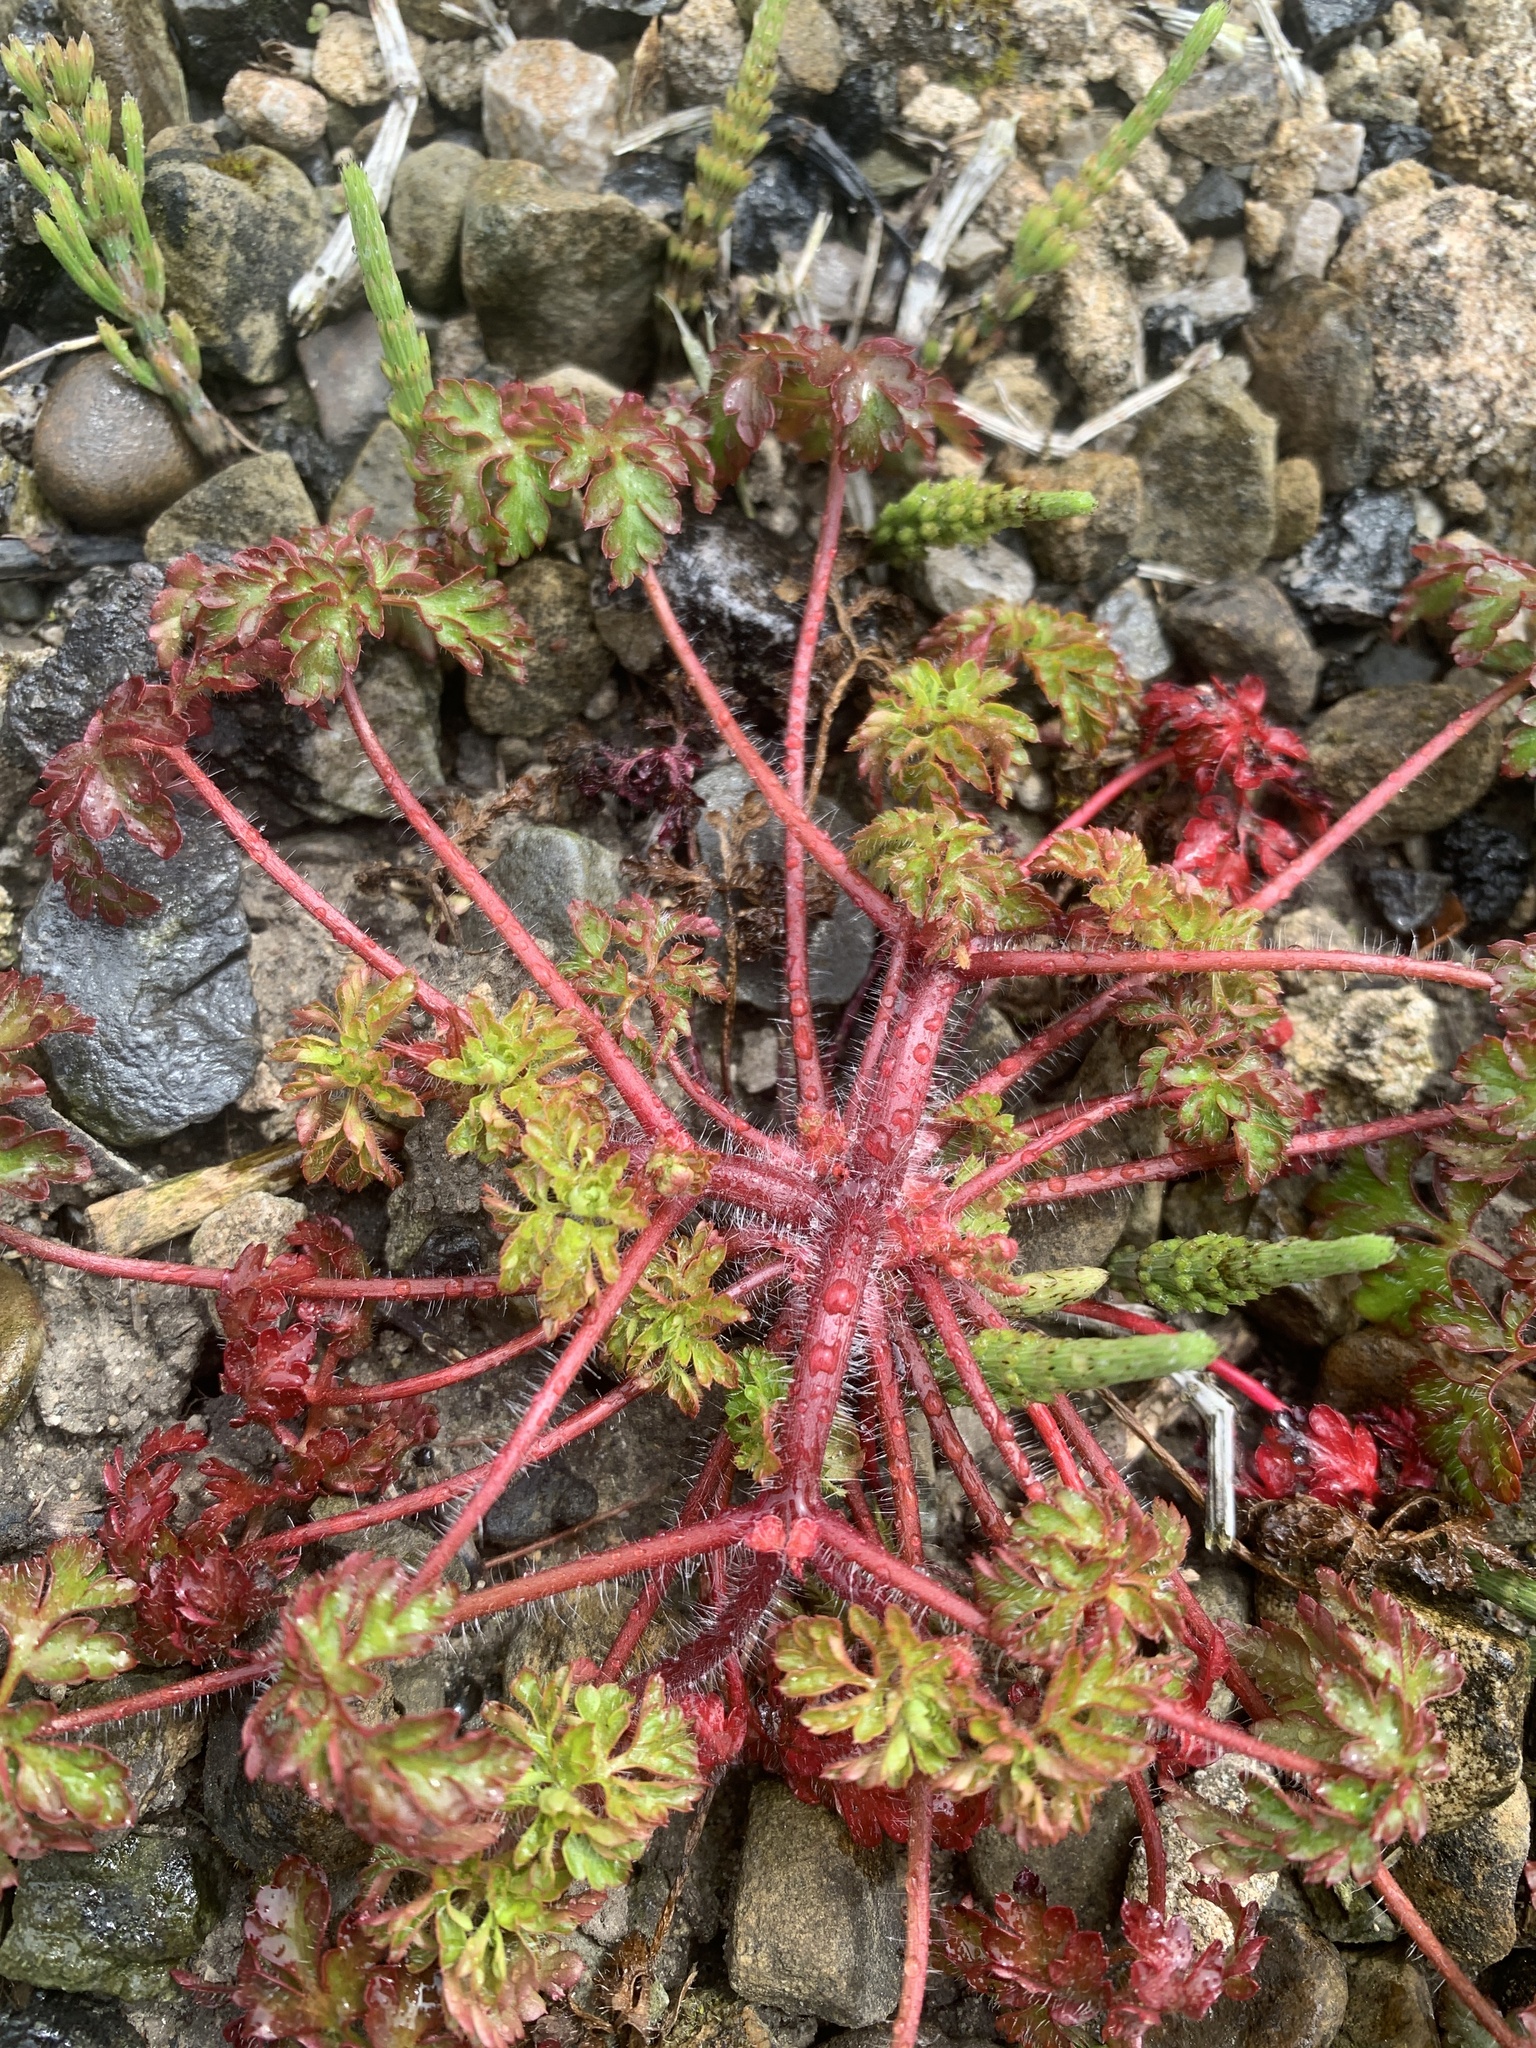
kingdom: Plantae
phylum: Tracheophyta
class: Magnoliopsida
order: Geraniales
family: Geraniaceae
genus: Geranium
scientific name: Geranium robertianum
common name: Herb-robert
